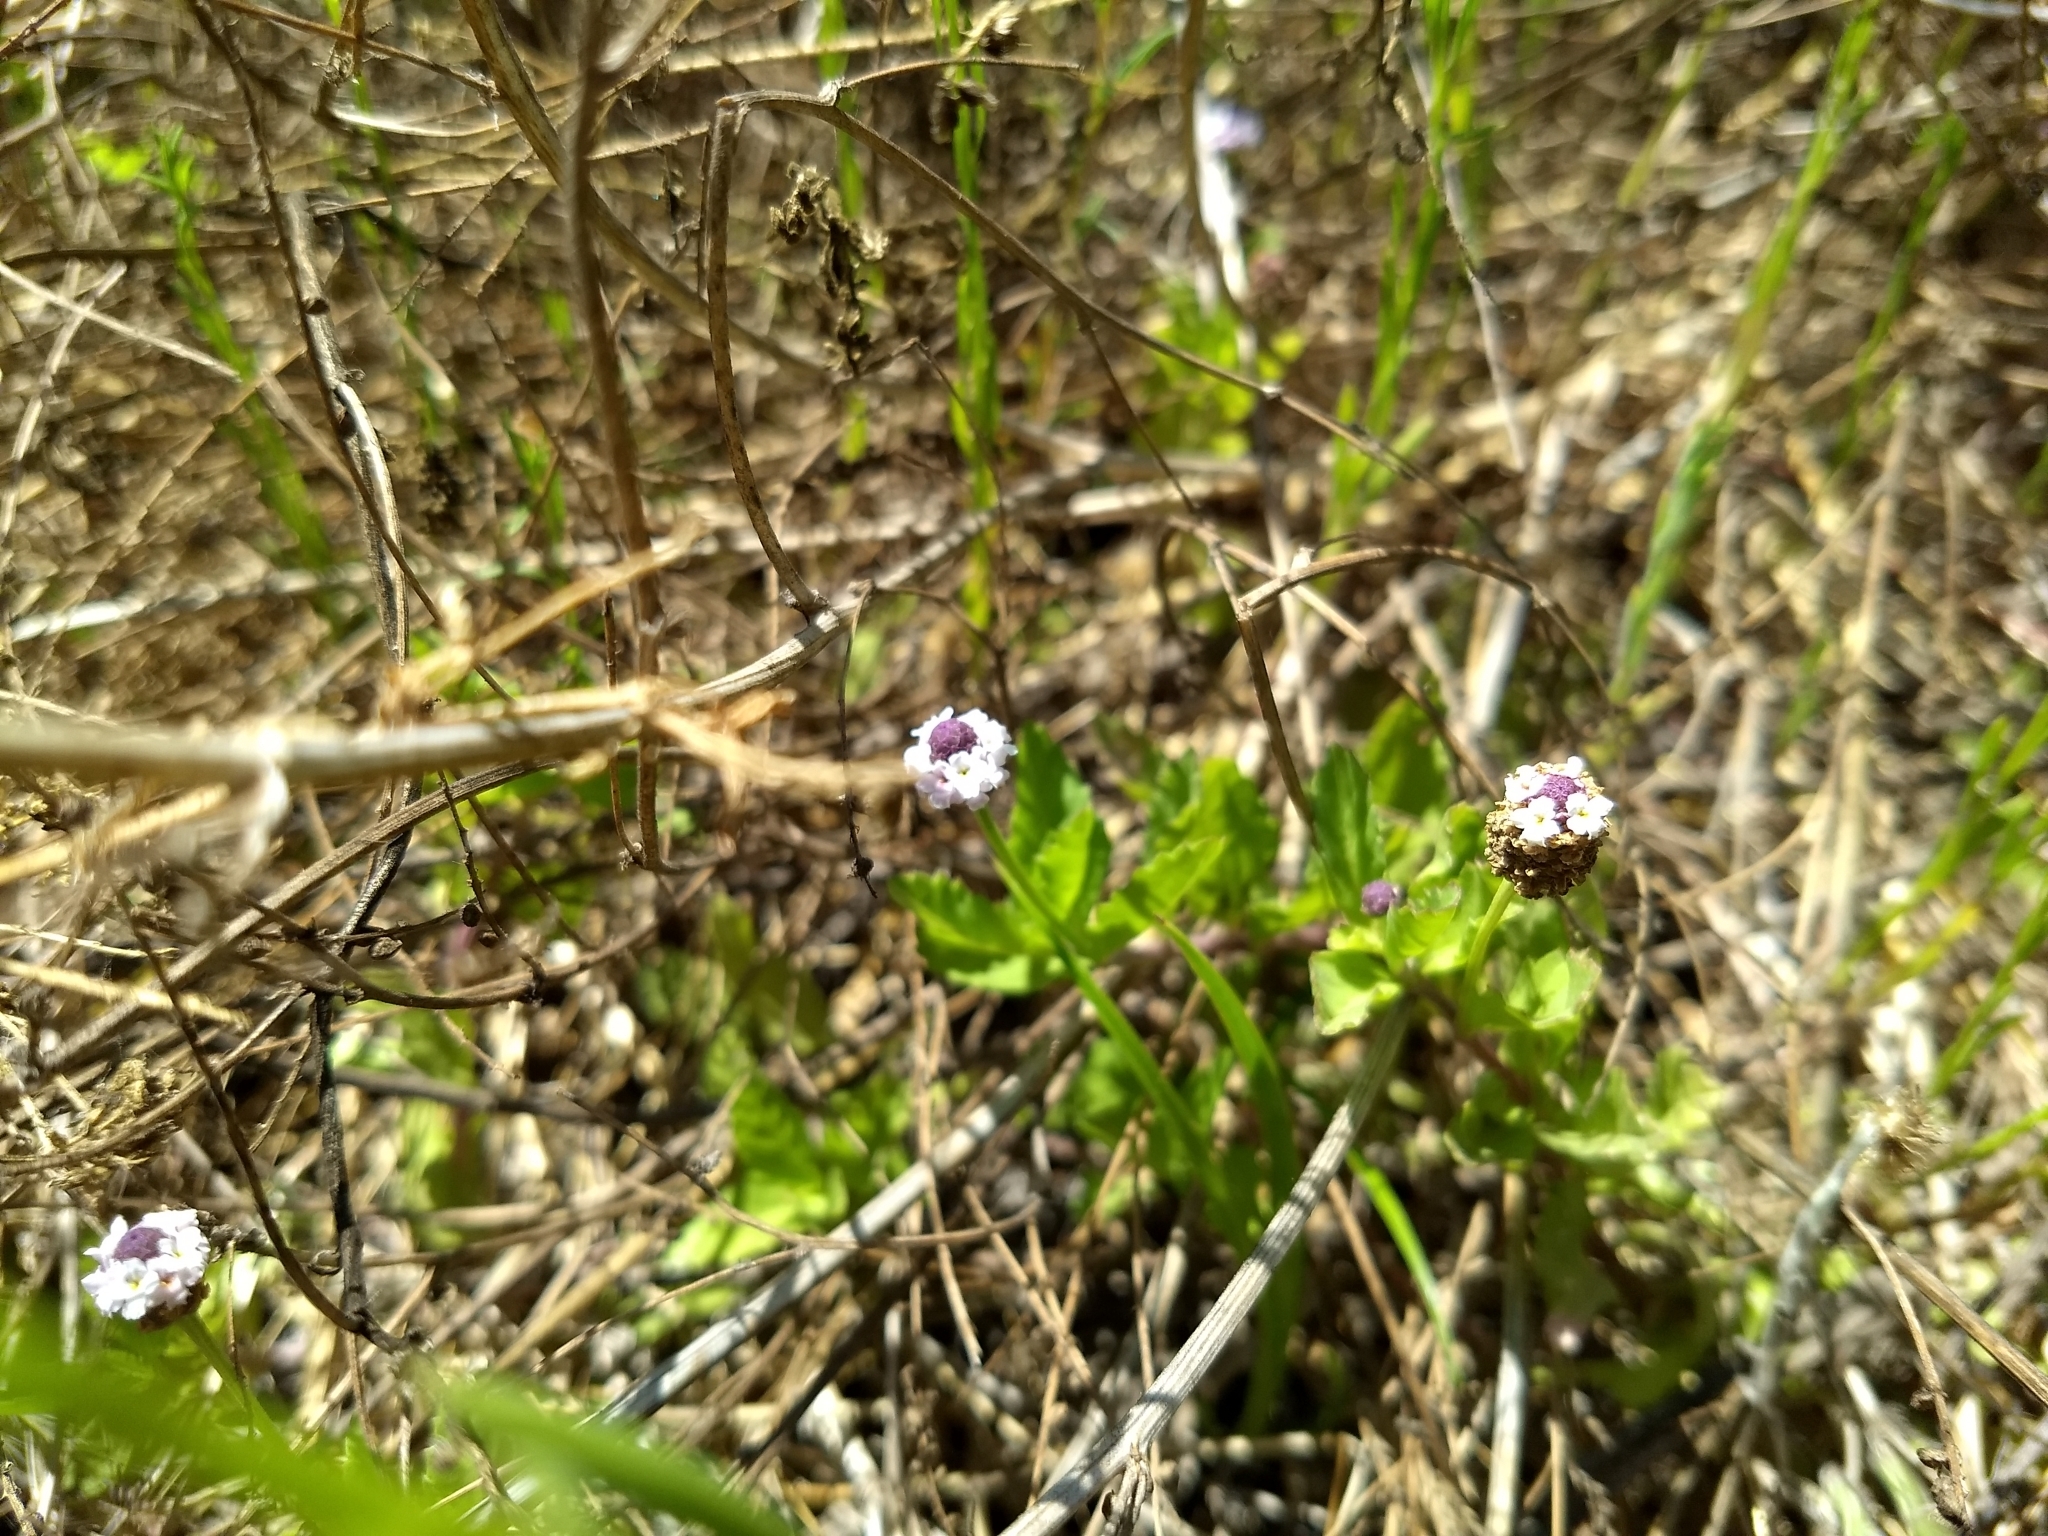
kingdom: Plantae
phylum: Tracheophyta
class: Magnoliopsida
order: Lamiales
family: Verbenaceae
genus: Phyla
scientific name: Phyla nodiflora
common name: Frogfruit
